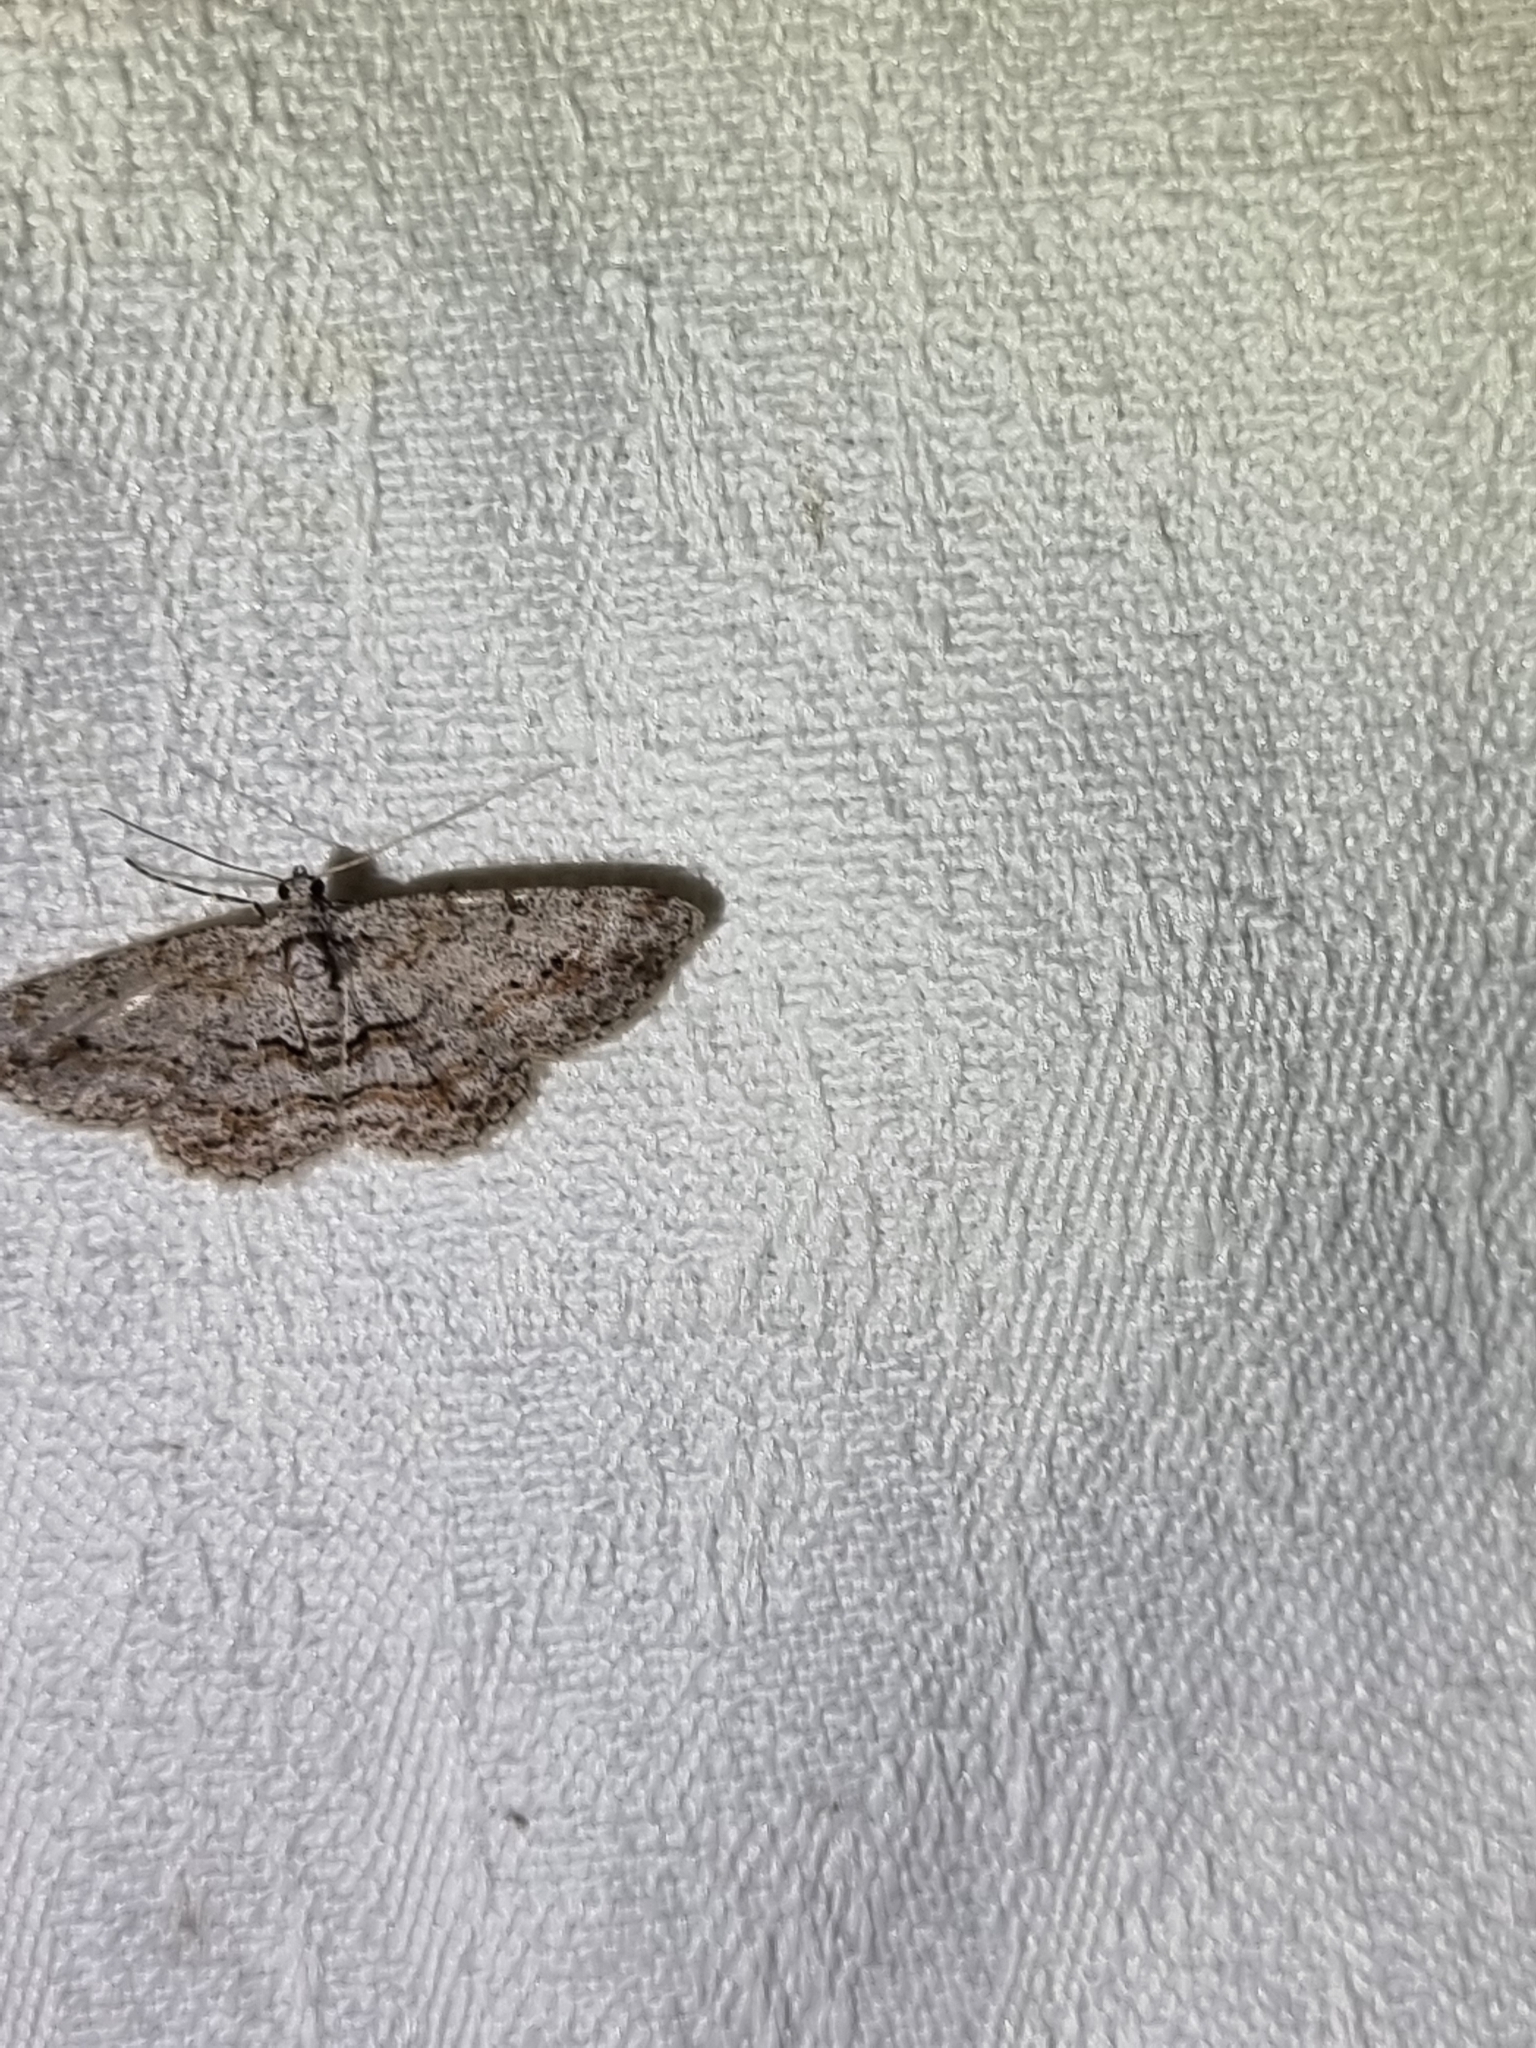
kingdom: Animalia
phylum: Arthropoda
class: Insecta
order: Lepidoptera
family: Geometridae
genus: Didymoctenia
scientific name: Didymoctenia exsuperata
